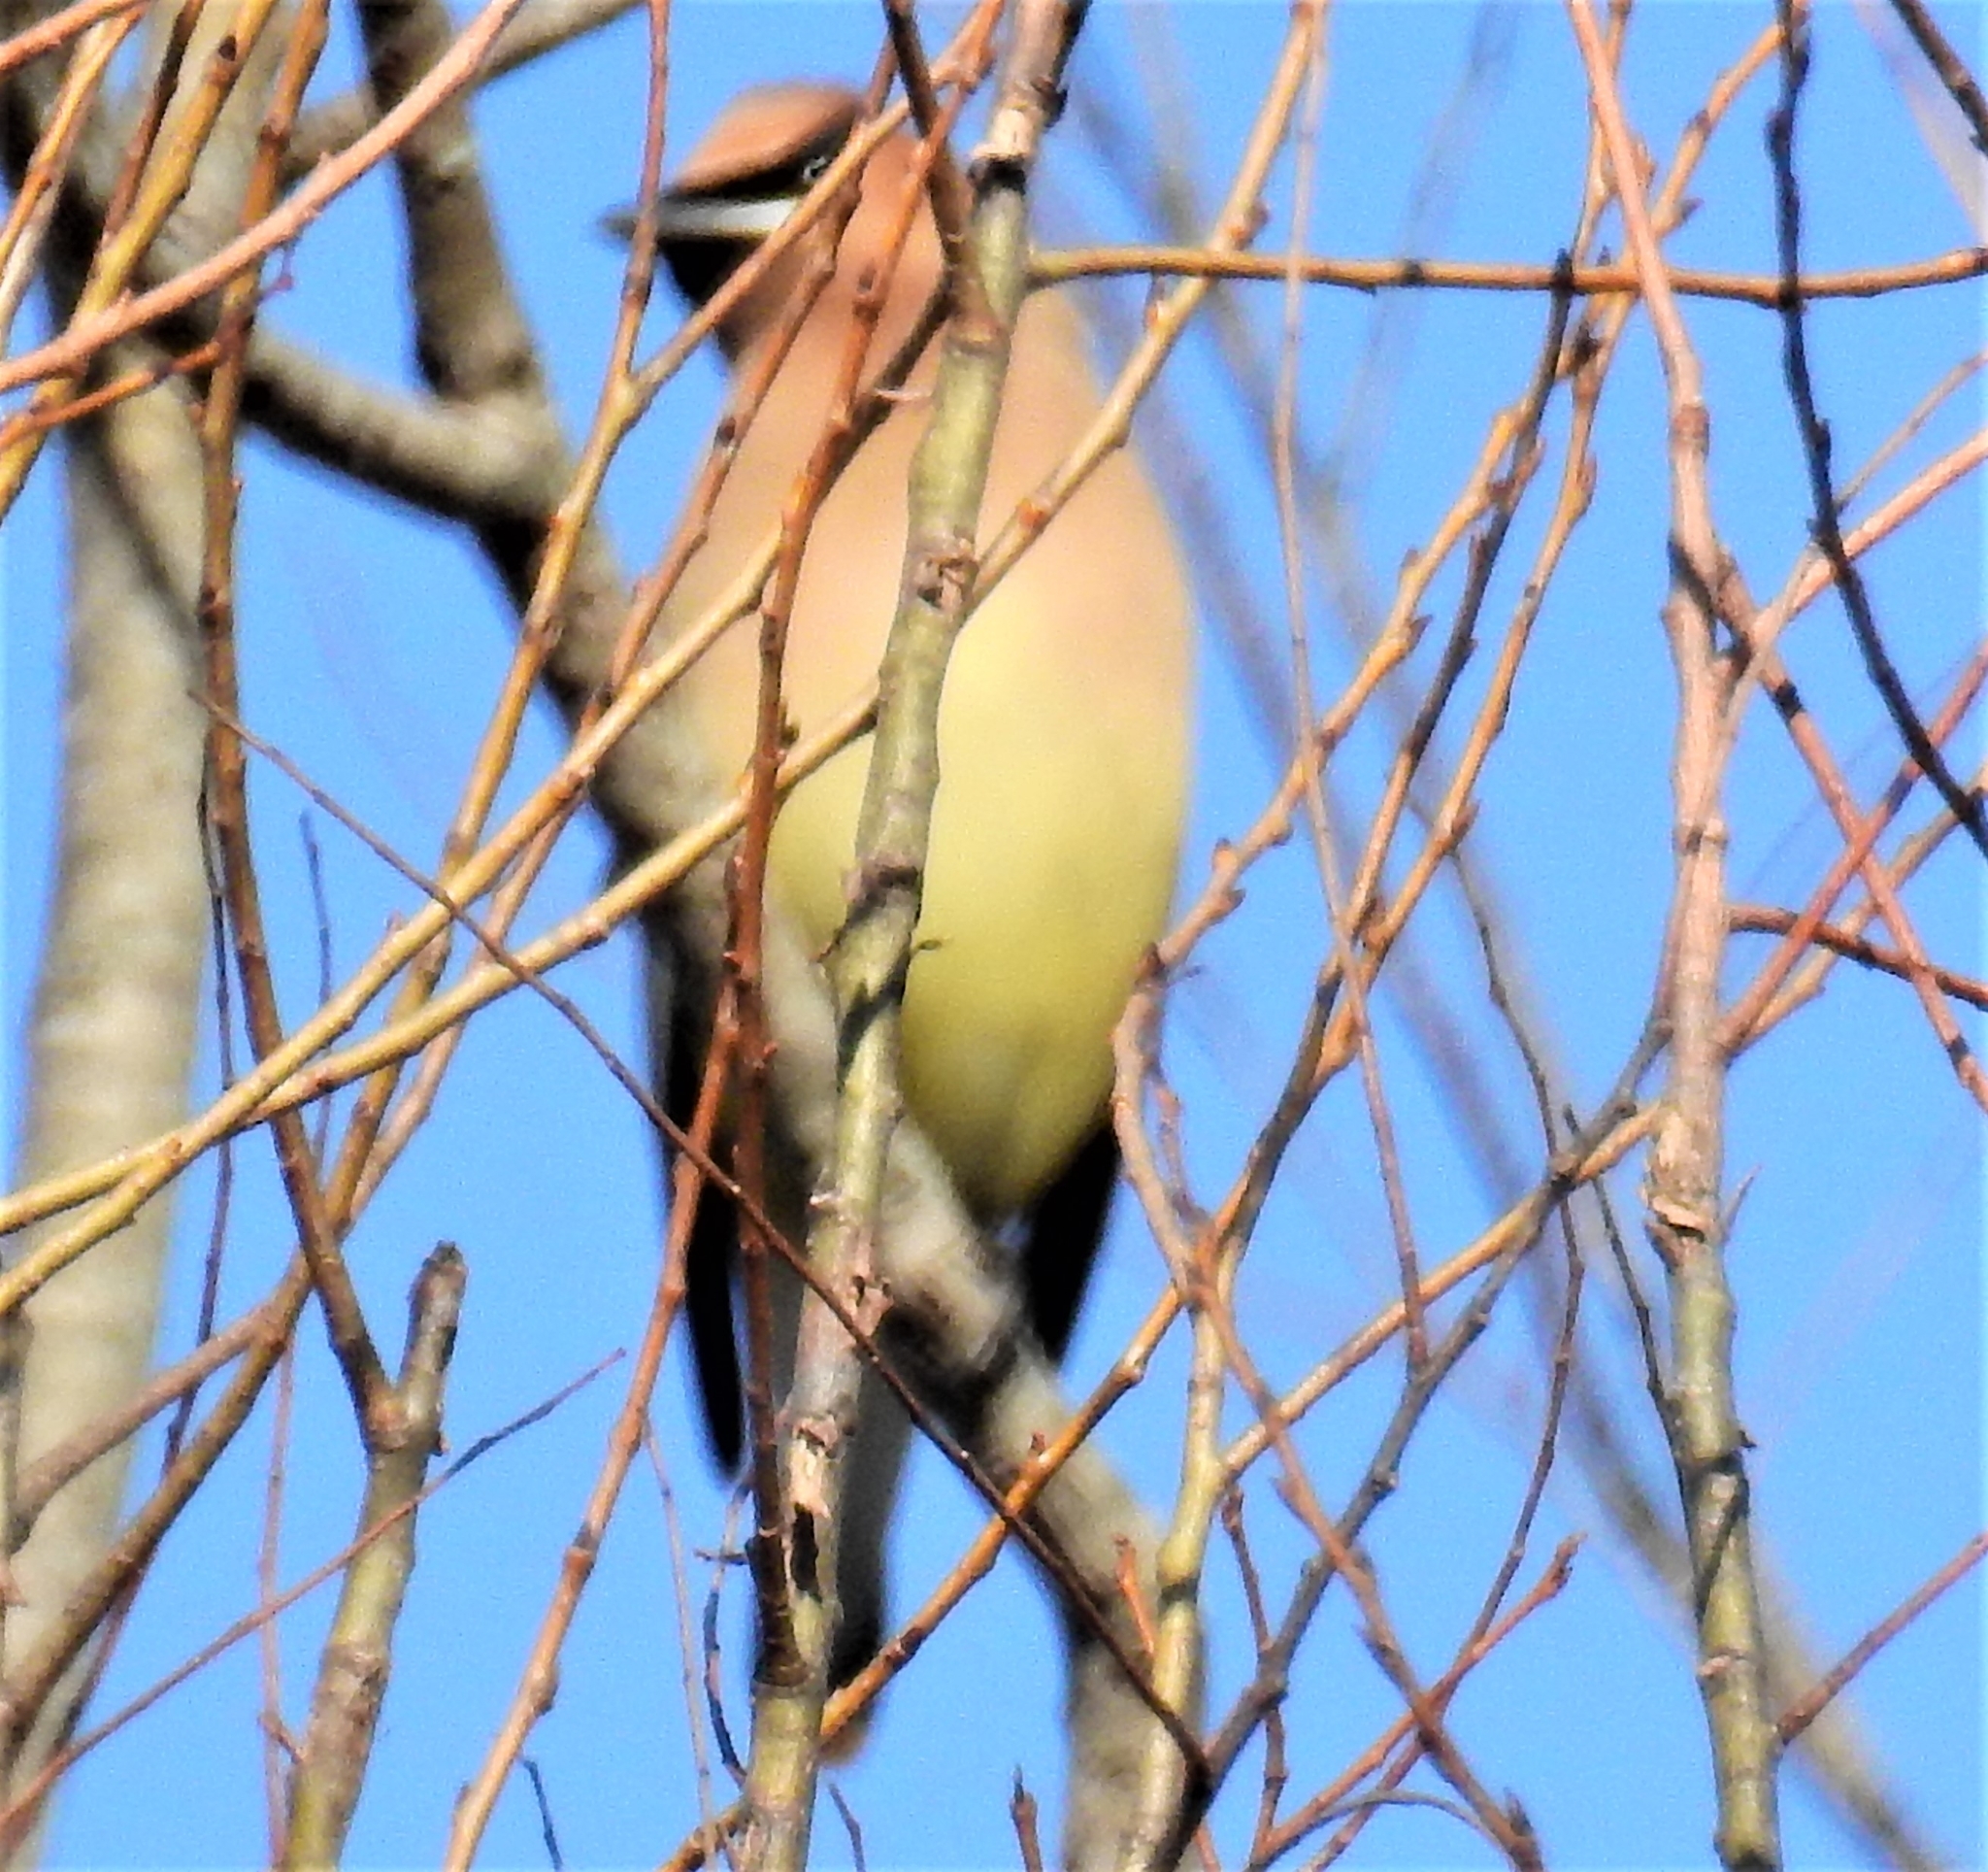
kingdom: Animalia
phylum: Chordata
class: Aves
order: Passeriformes
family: Bombycillidae
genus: Bombycilla
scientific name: Bombycilla cedrorum
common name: Cedar waxwing
